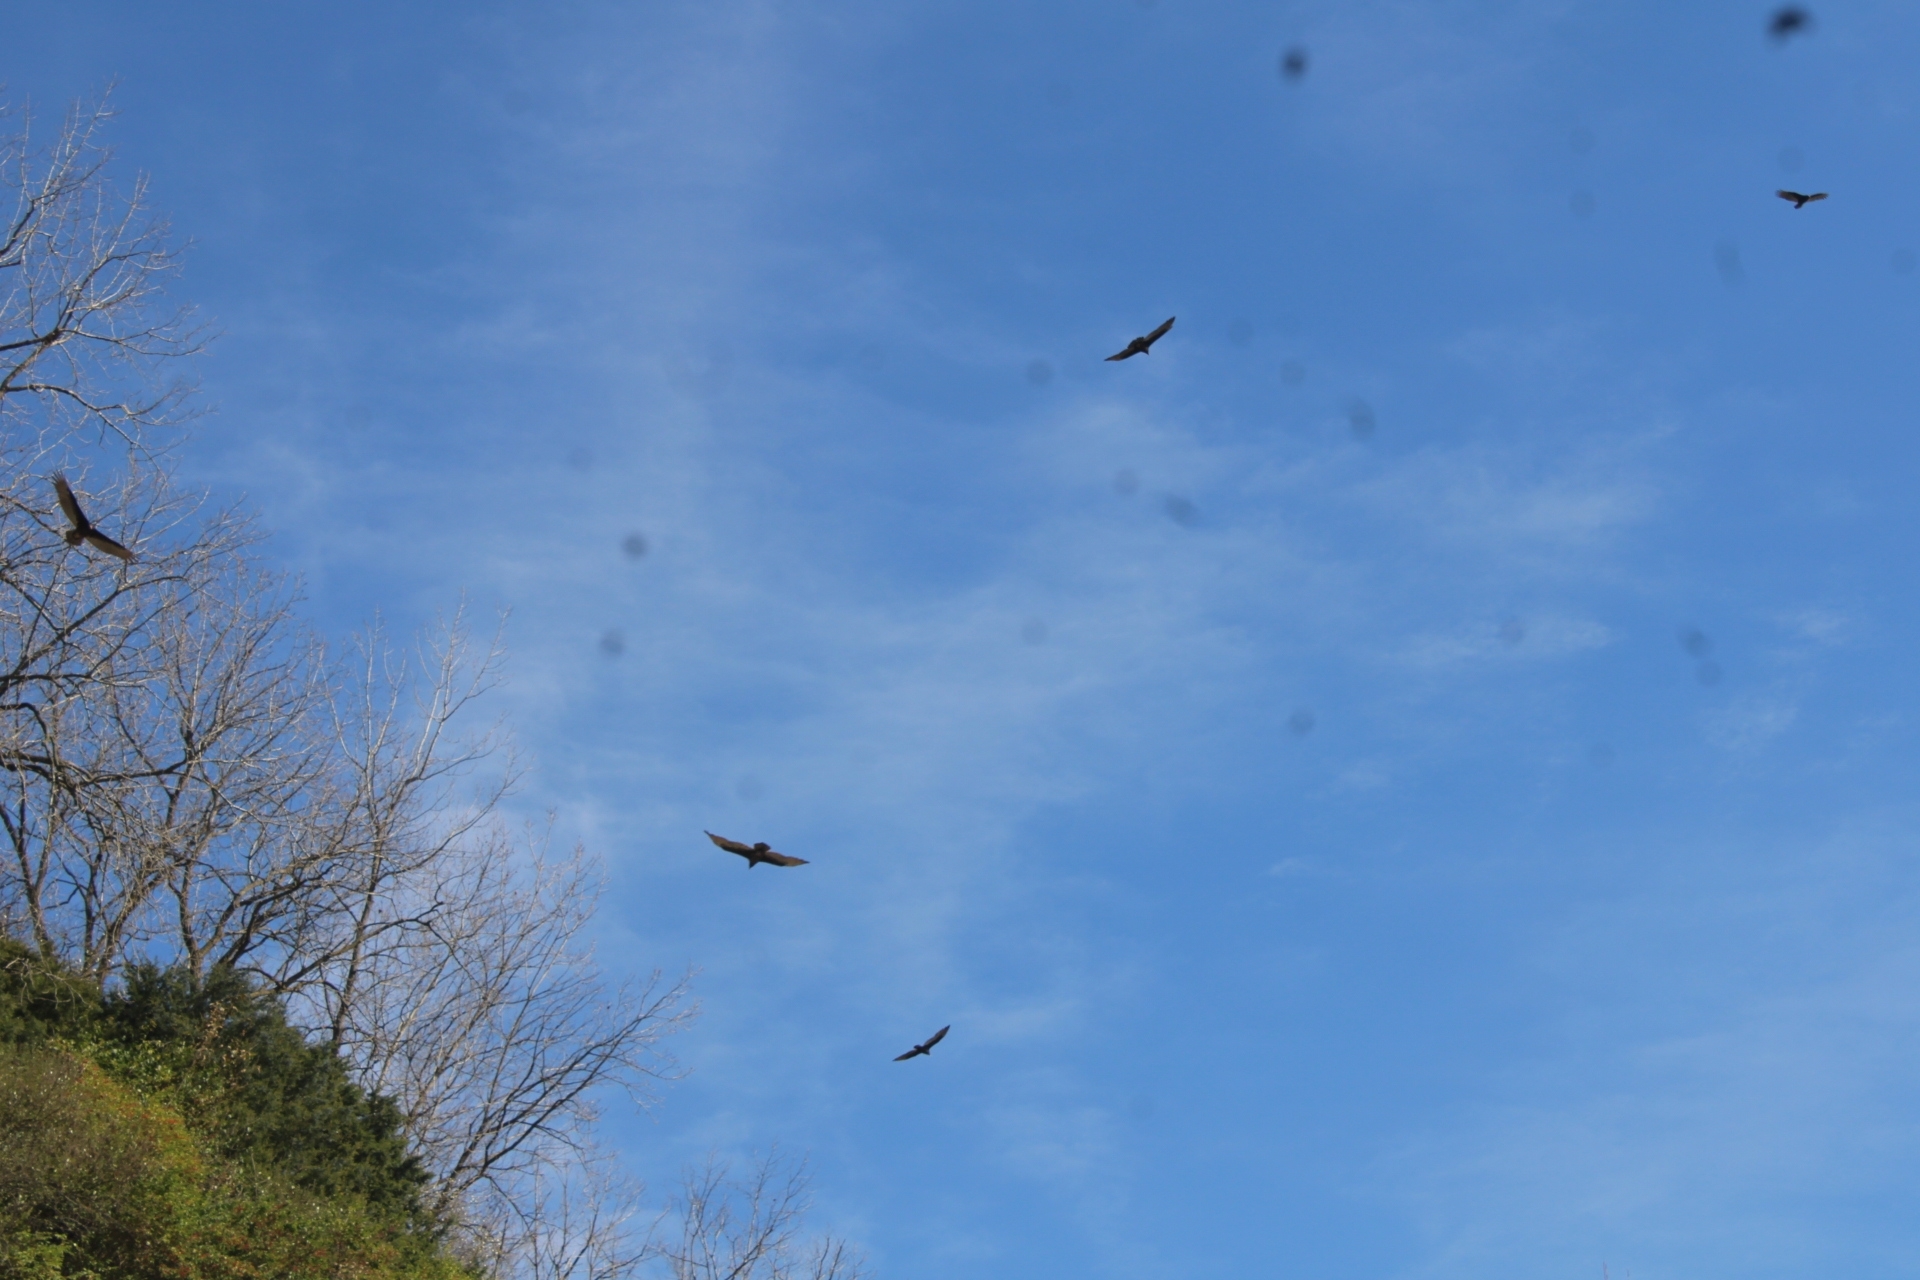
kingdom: Animalia
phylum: Chordata
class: Aves
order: Accipitriformes
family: Cathartidae
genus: Cathartes
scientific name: Cathartes aura
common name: Turkey vulture
